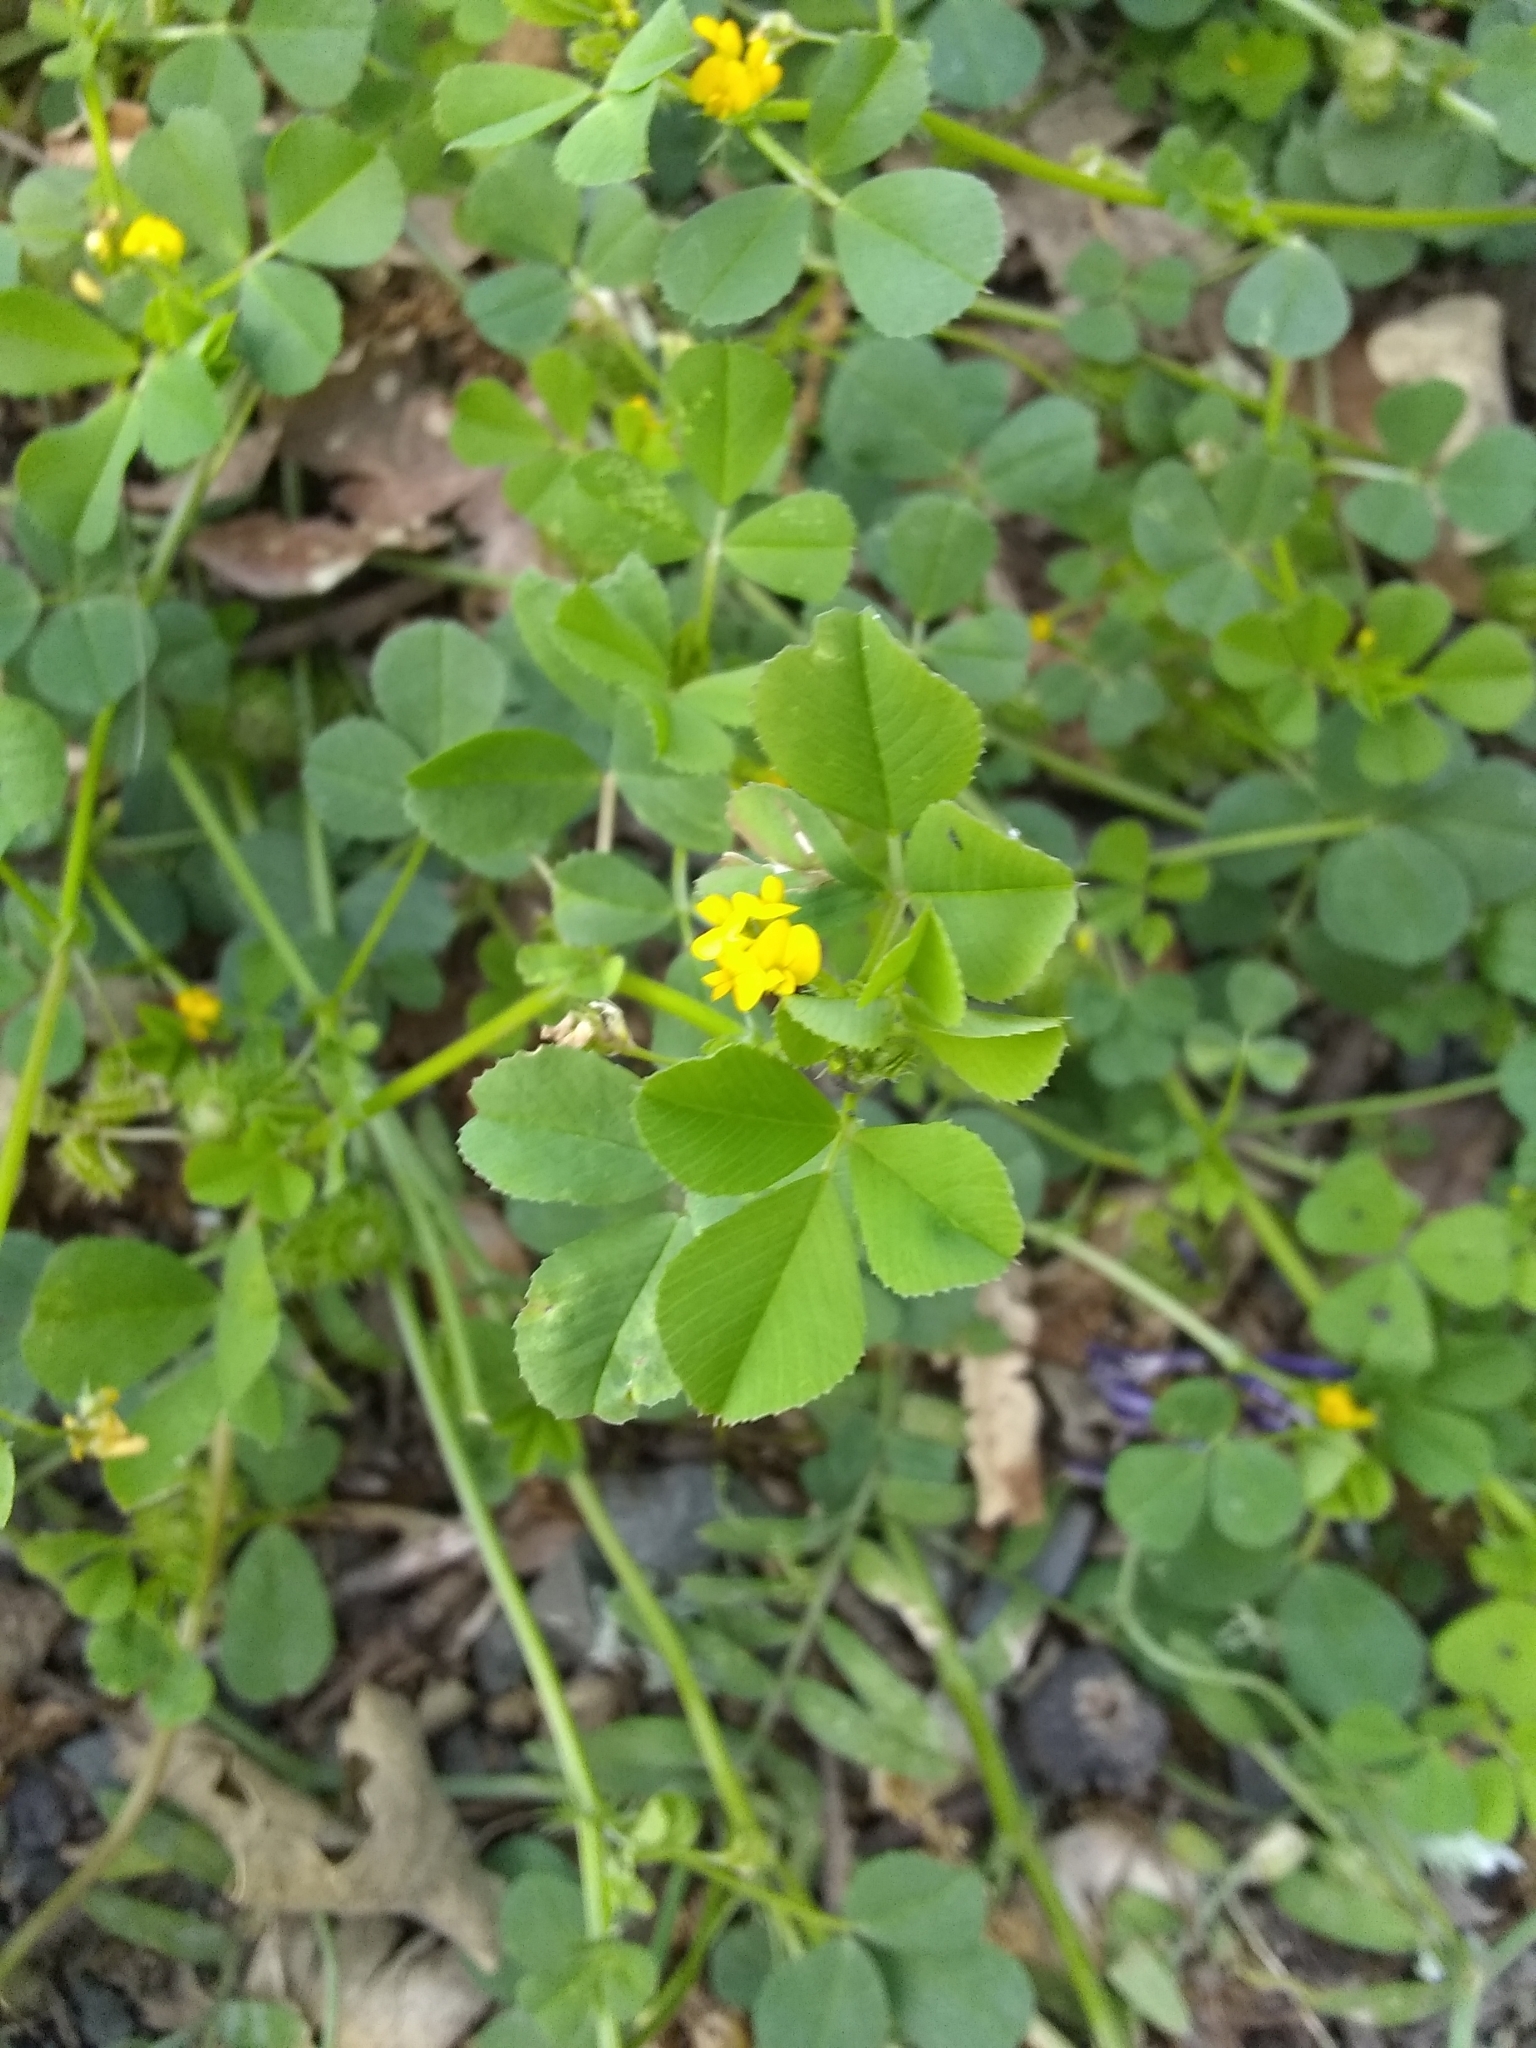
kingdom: Plantae
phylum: Tracheophyta
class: Magnoliopsida
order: Fabales
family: Fabaceae
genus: Medicago
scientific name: Medicago polymorpha
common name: Burclover
